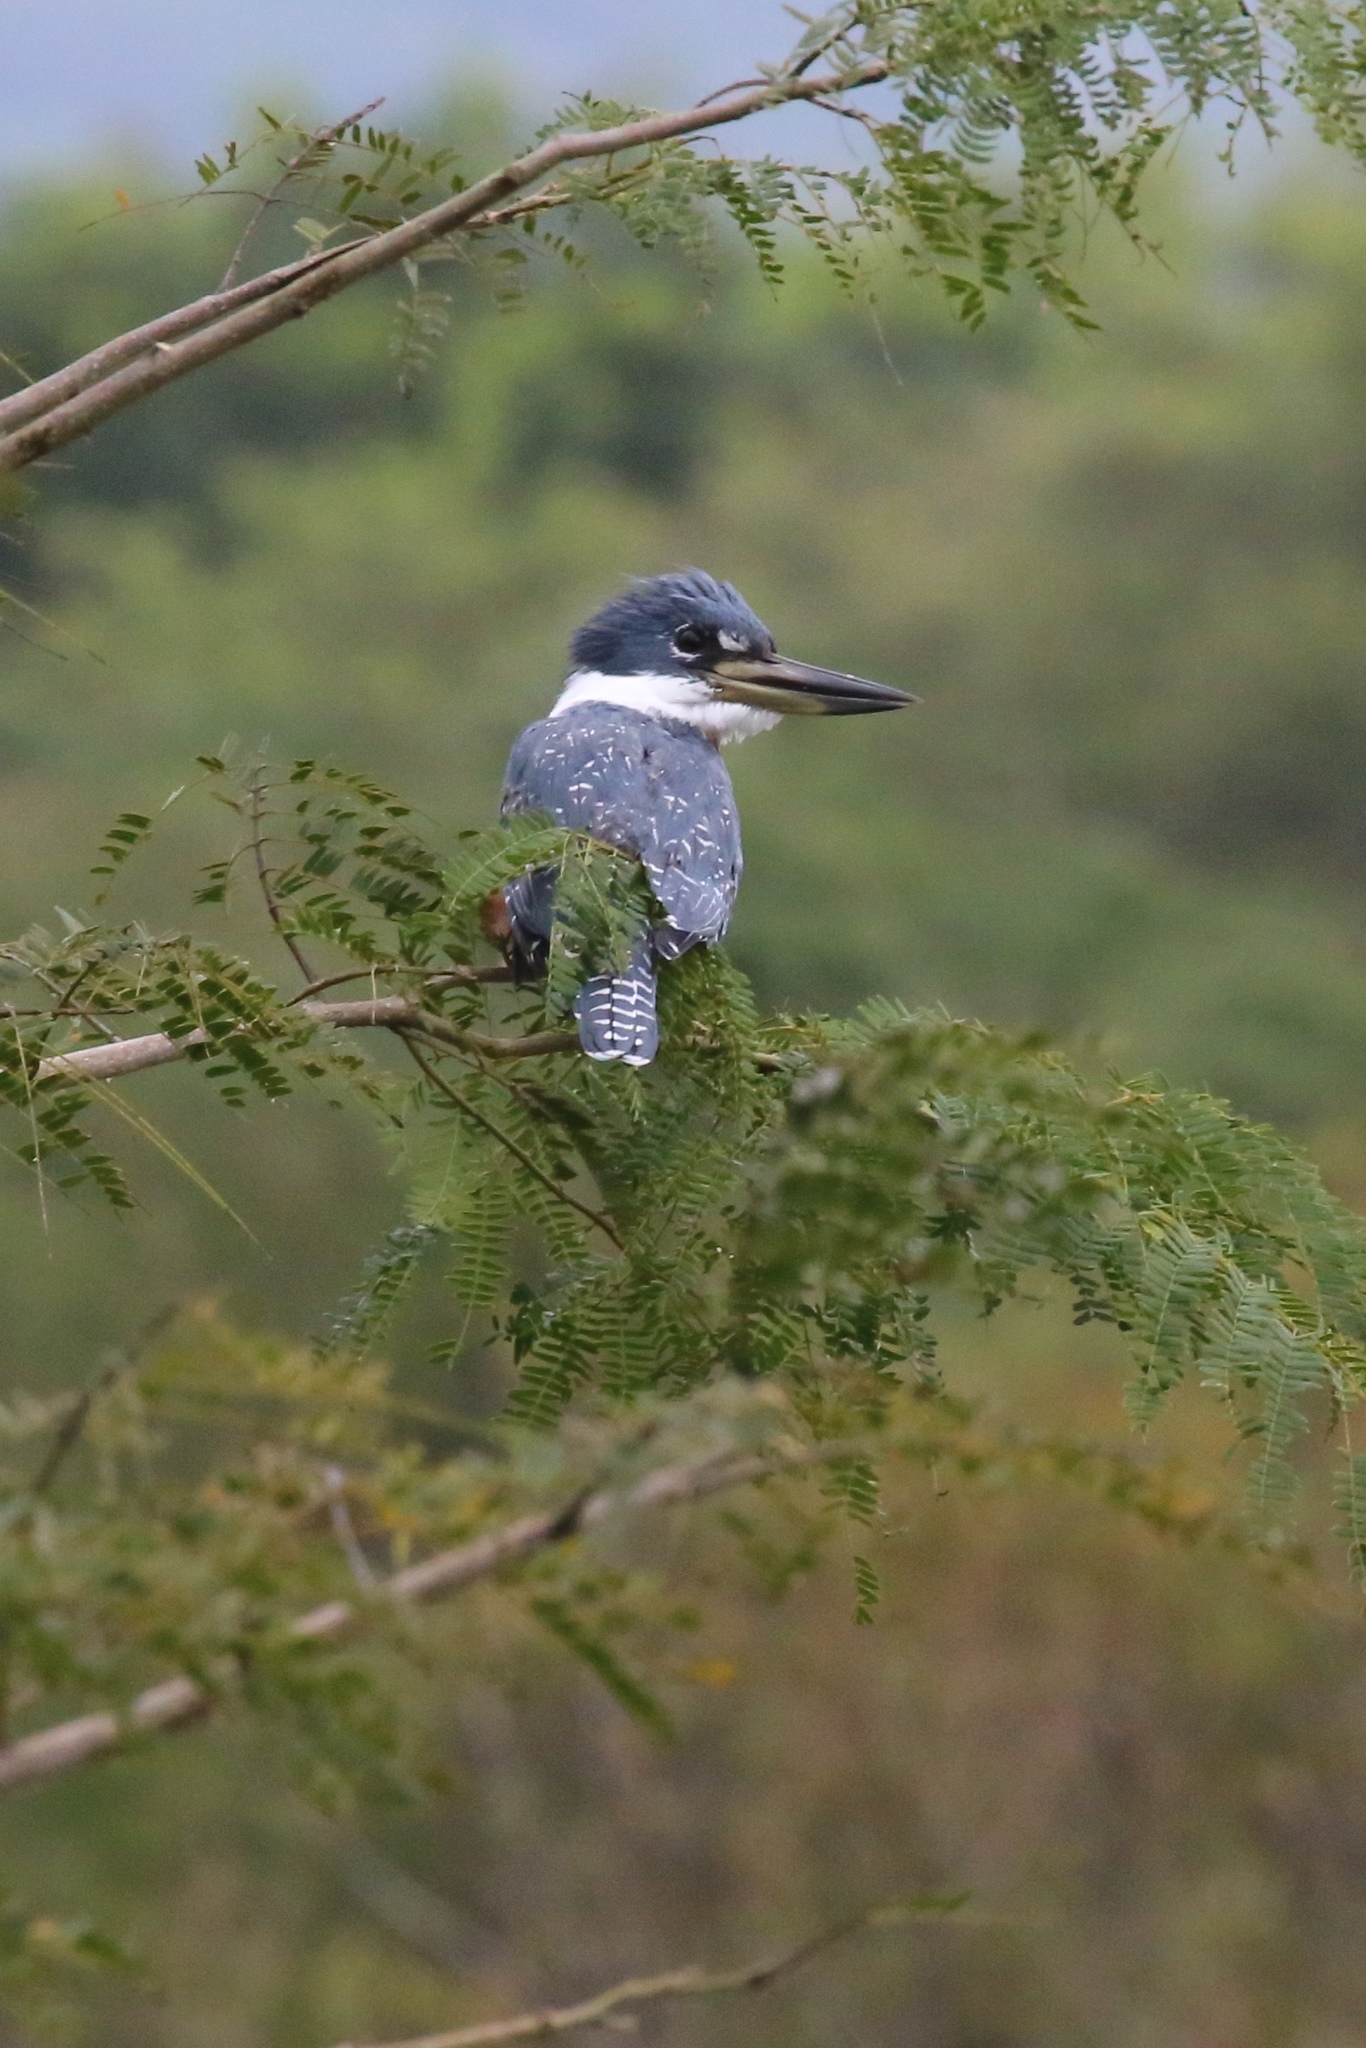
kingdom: Animalia
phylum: Chordata
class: Aves
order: Coraciiformes
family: Alcedinidae
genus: Megaceryle
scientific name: Megaceryle torquata
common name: Ringed kingfisher
